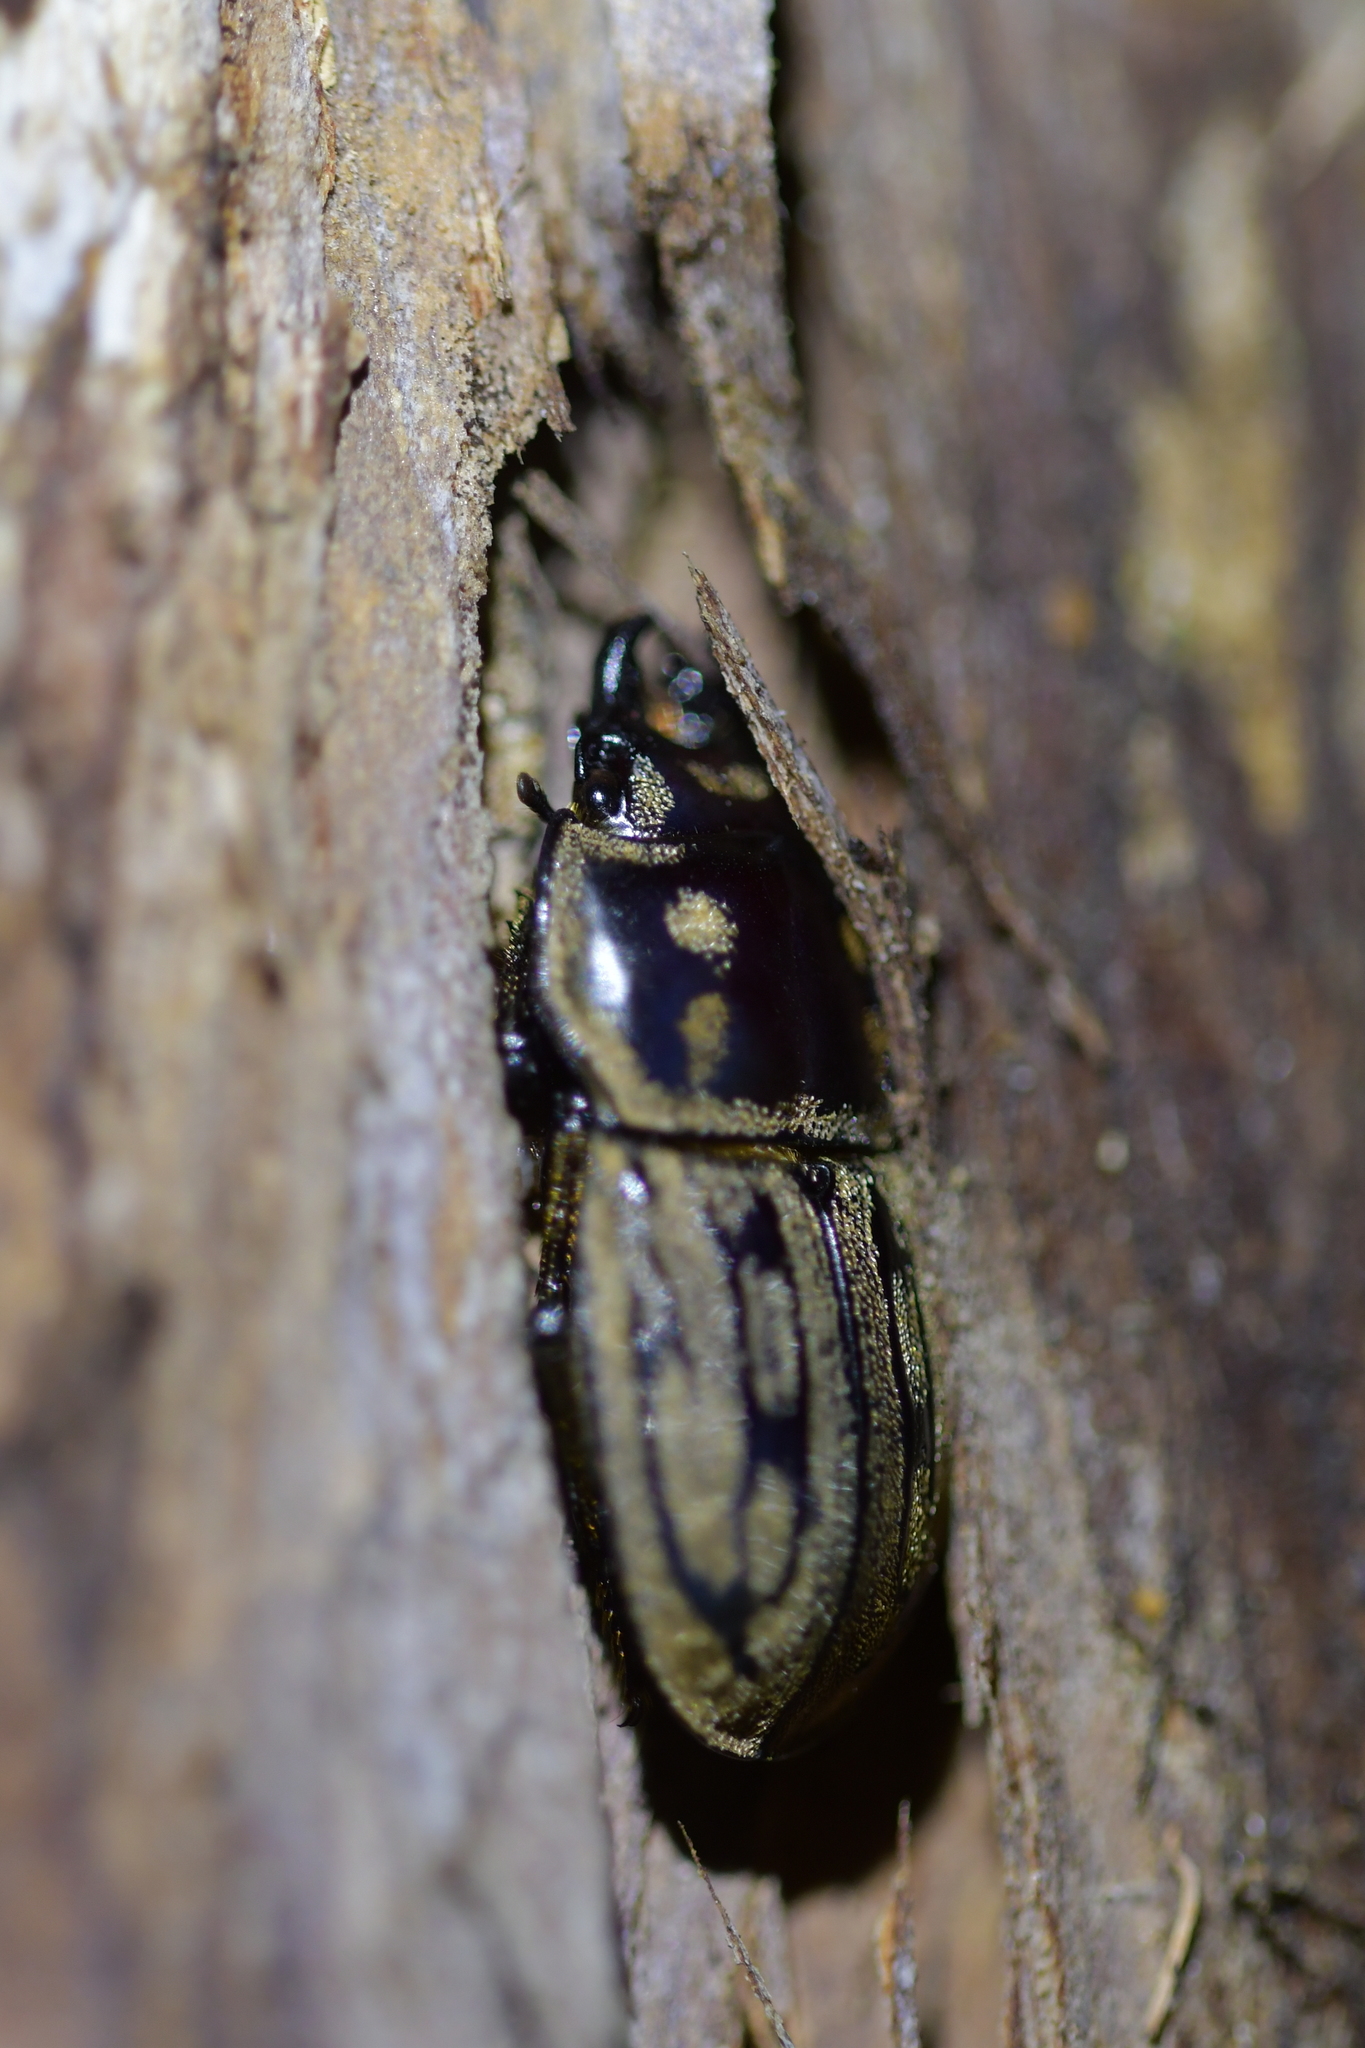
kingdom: Animalia
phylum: Arthropoda
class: Insecta
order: Coleoptera
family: Lucanidae
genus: Paralissotes
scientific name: Paralissotes reticulatus
